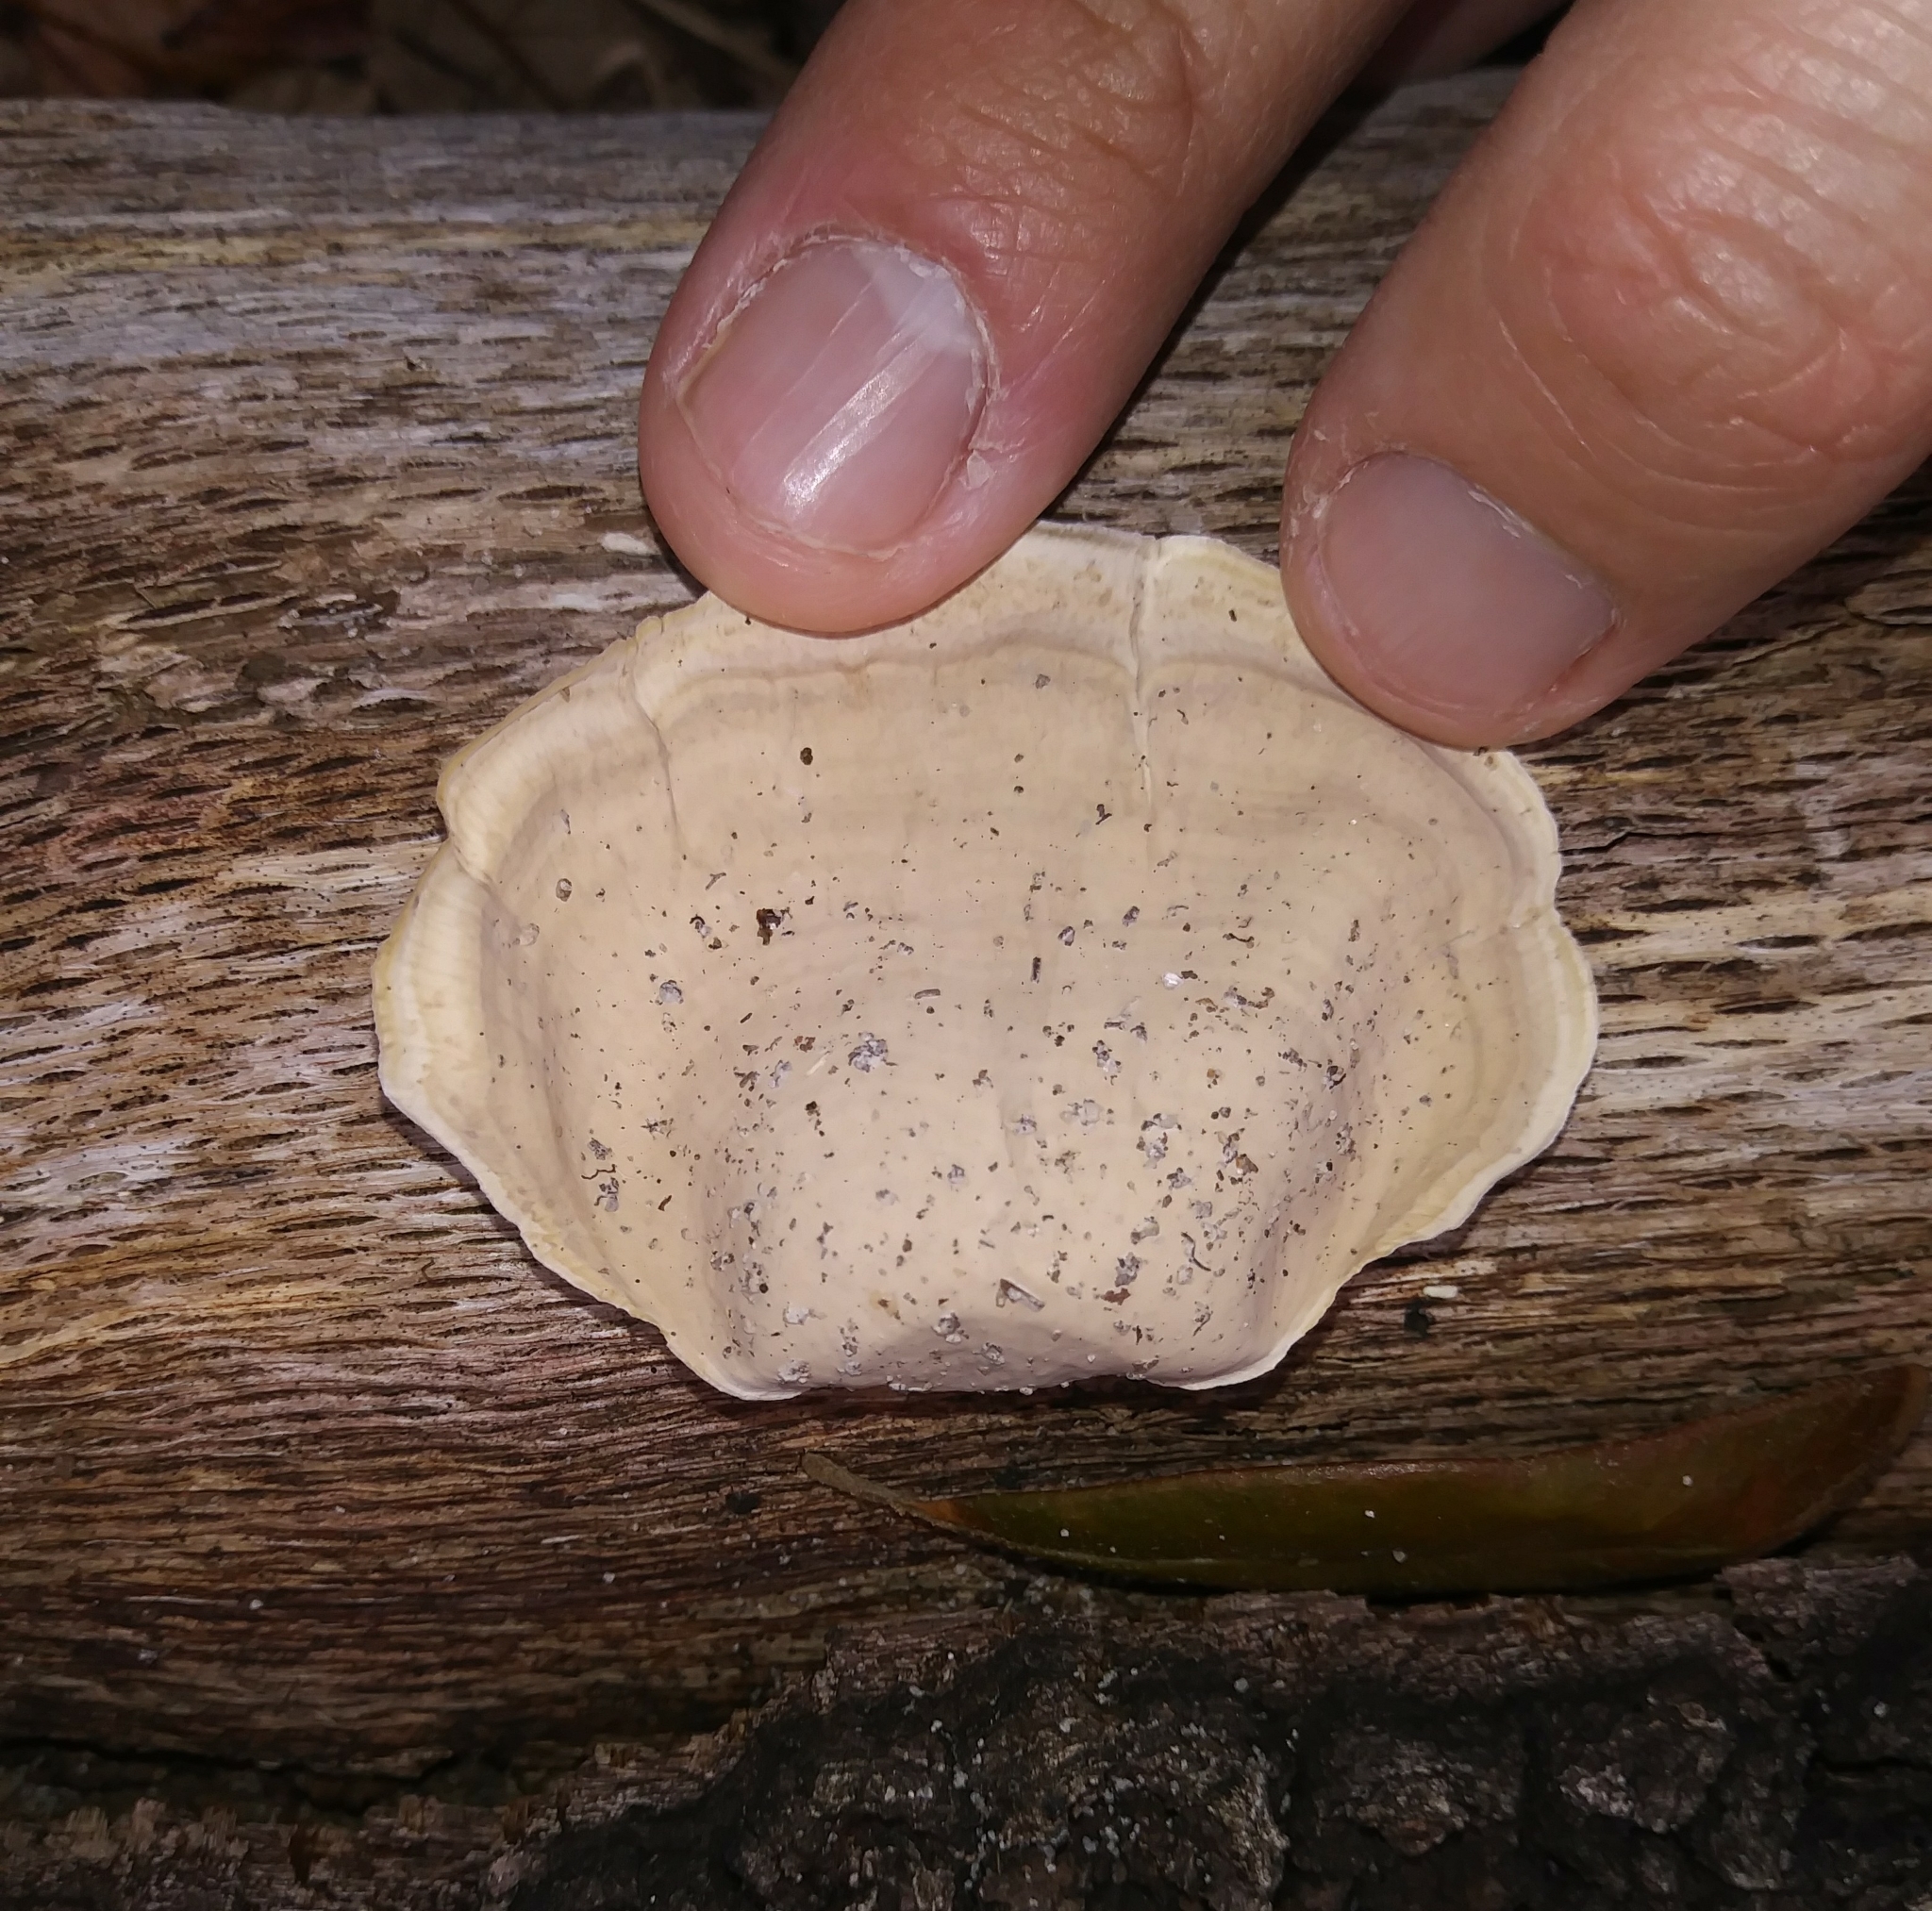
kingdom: Fungi
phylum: Basidiomycota
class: Agaricomycetes
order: Russulales
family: Stereaceae
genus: Stereum
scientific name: Stereum ostrea
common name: False turkeytail
